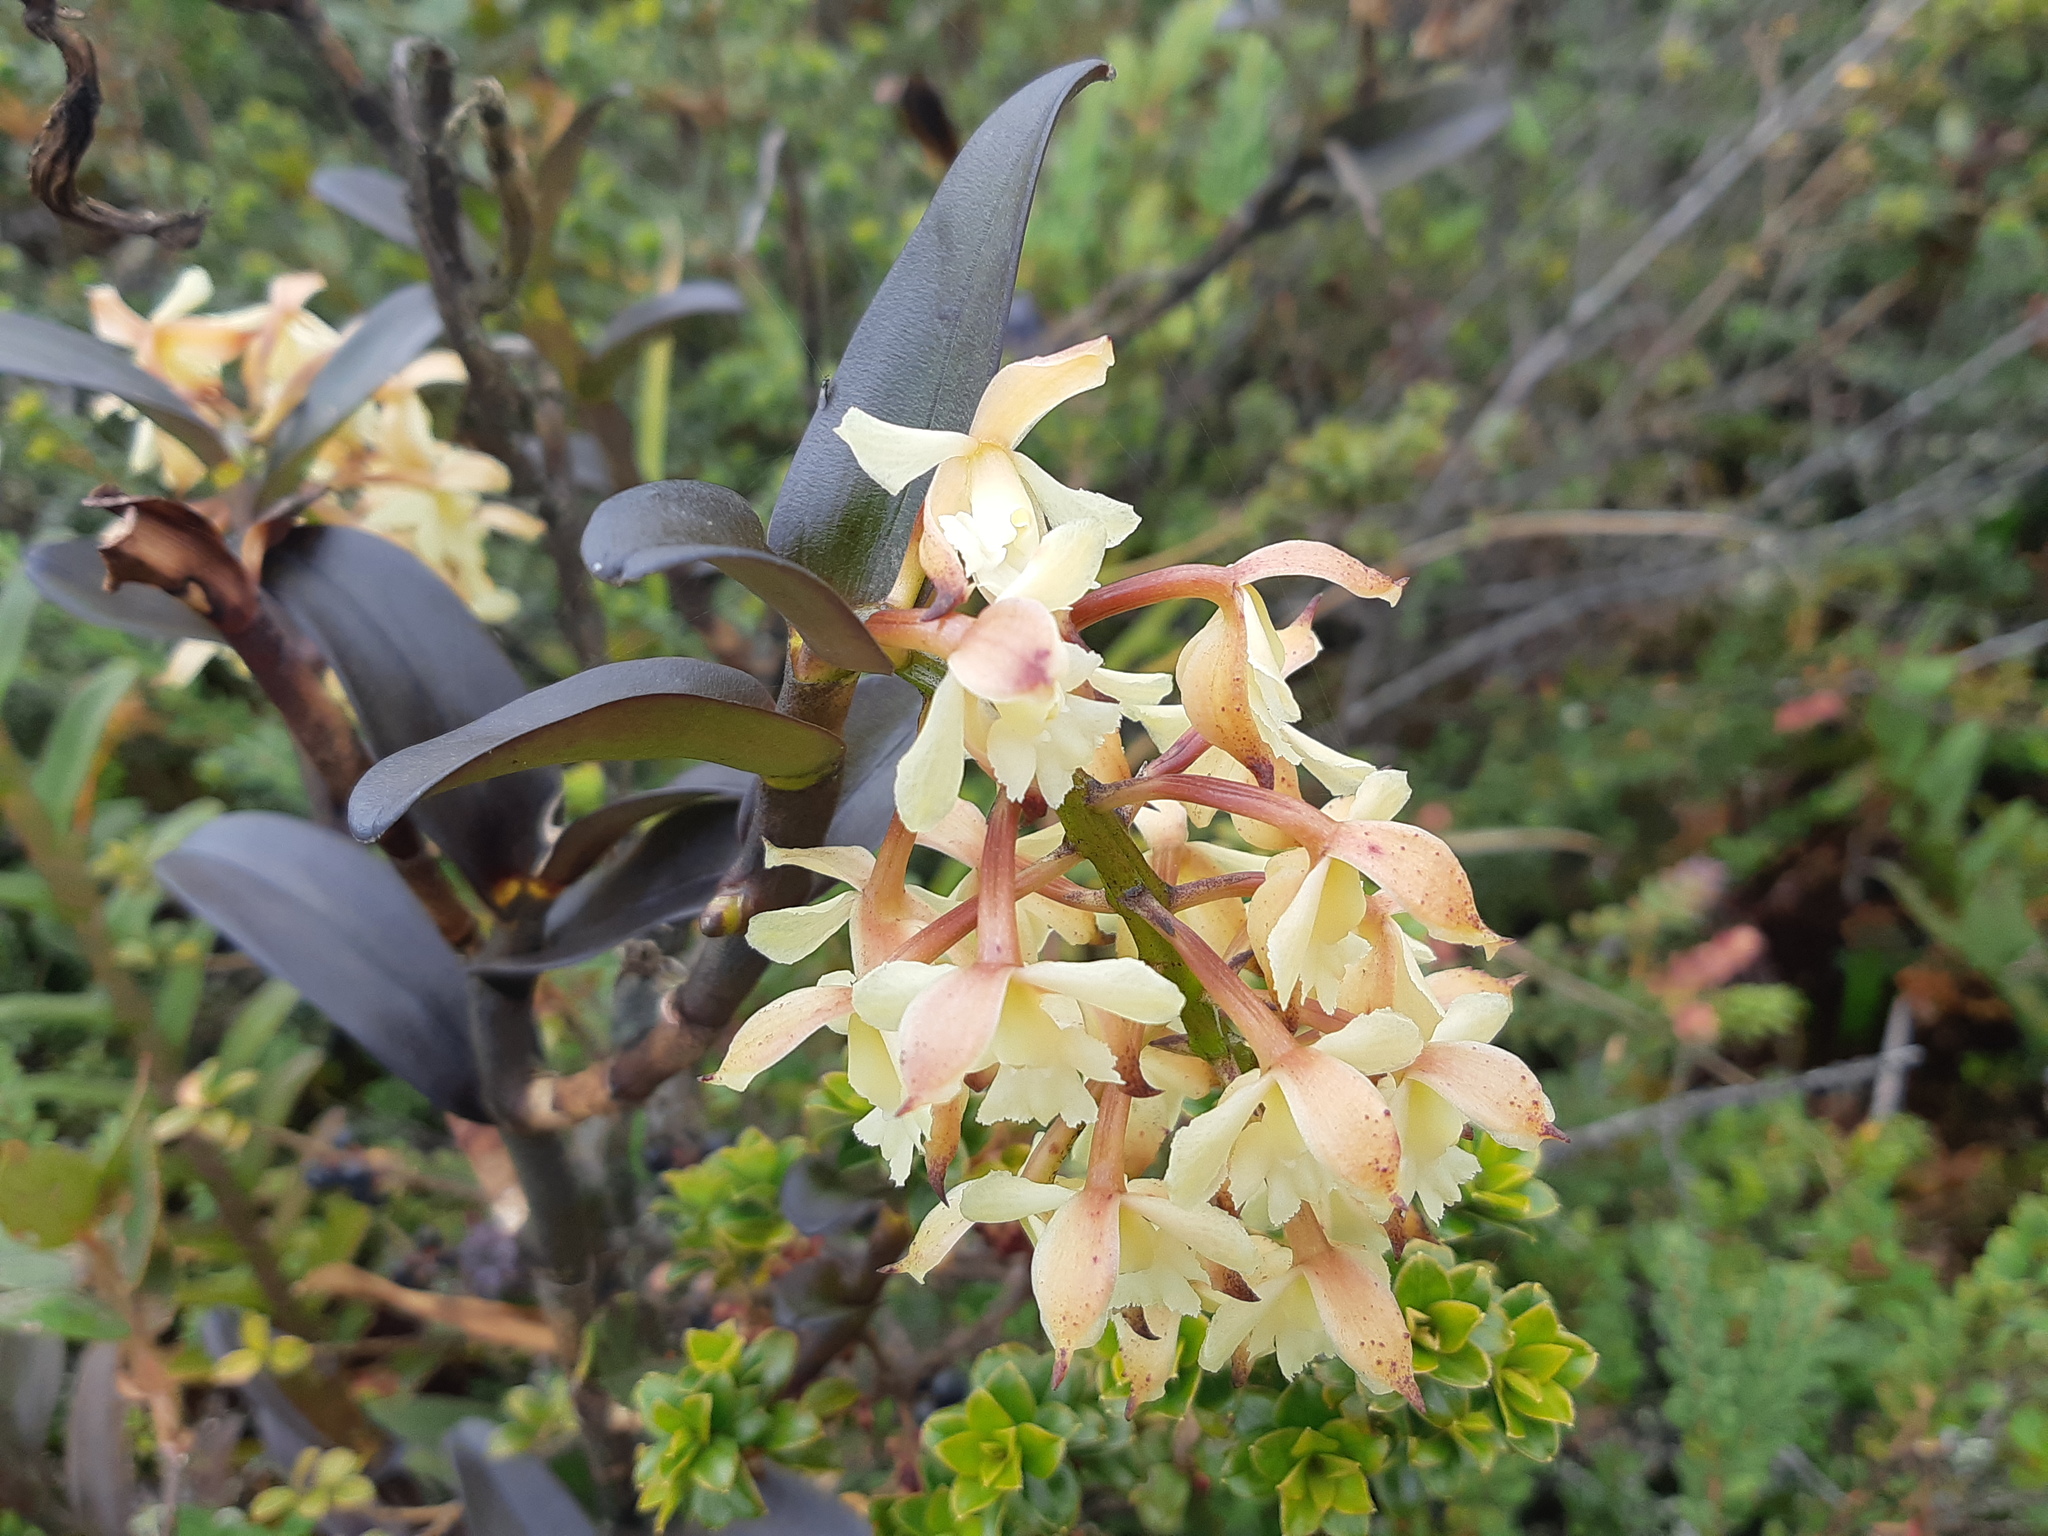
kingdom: Plantae
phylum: Tracheophyta
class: Liliopsida
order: Asparagales
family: Orchidaceae
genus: Epidendrum
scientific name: Epidendrum sumacoense
